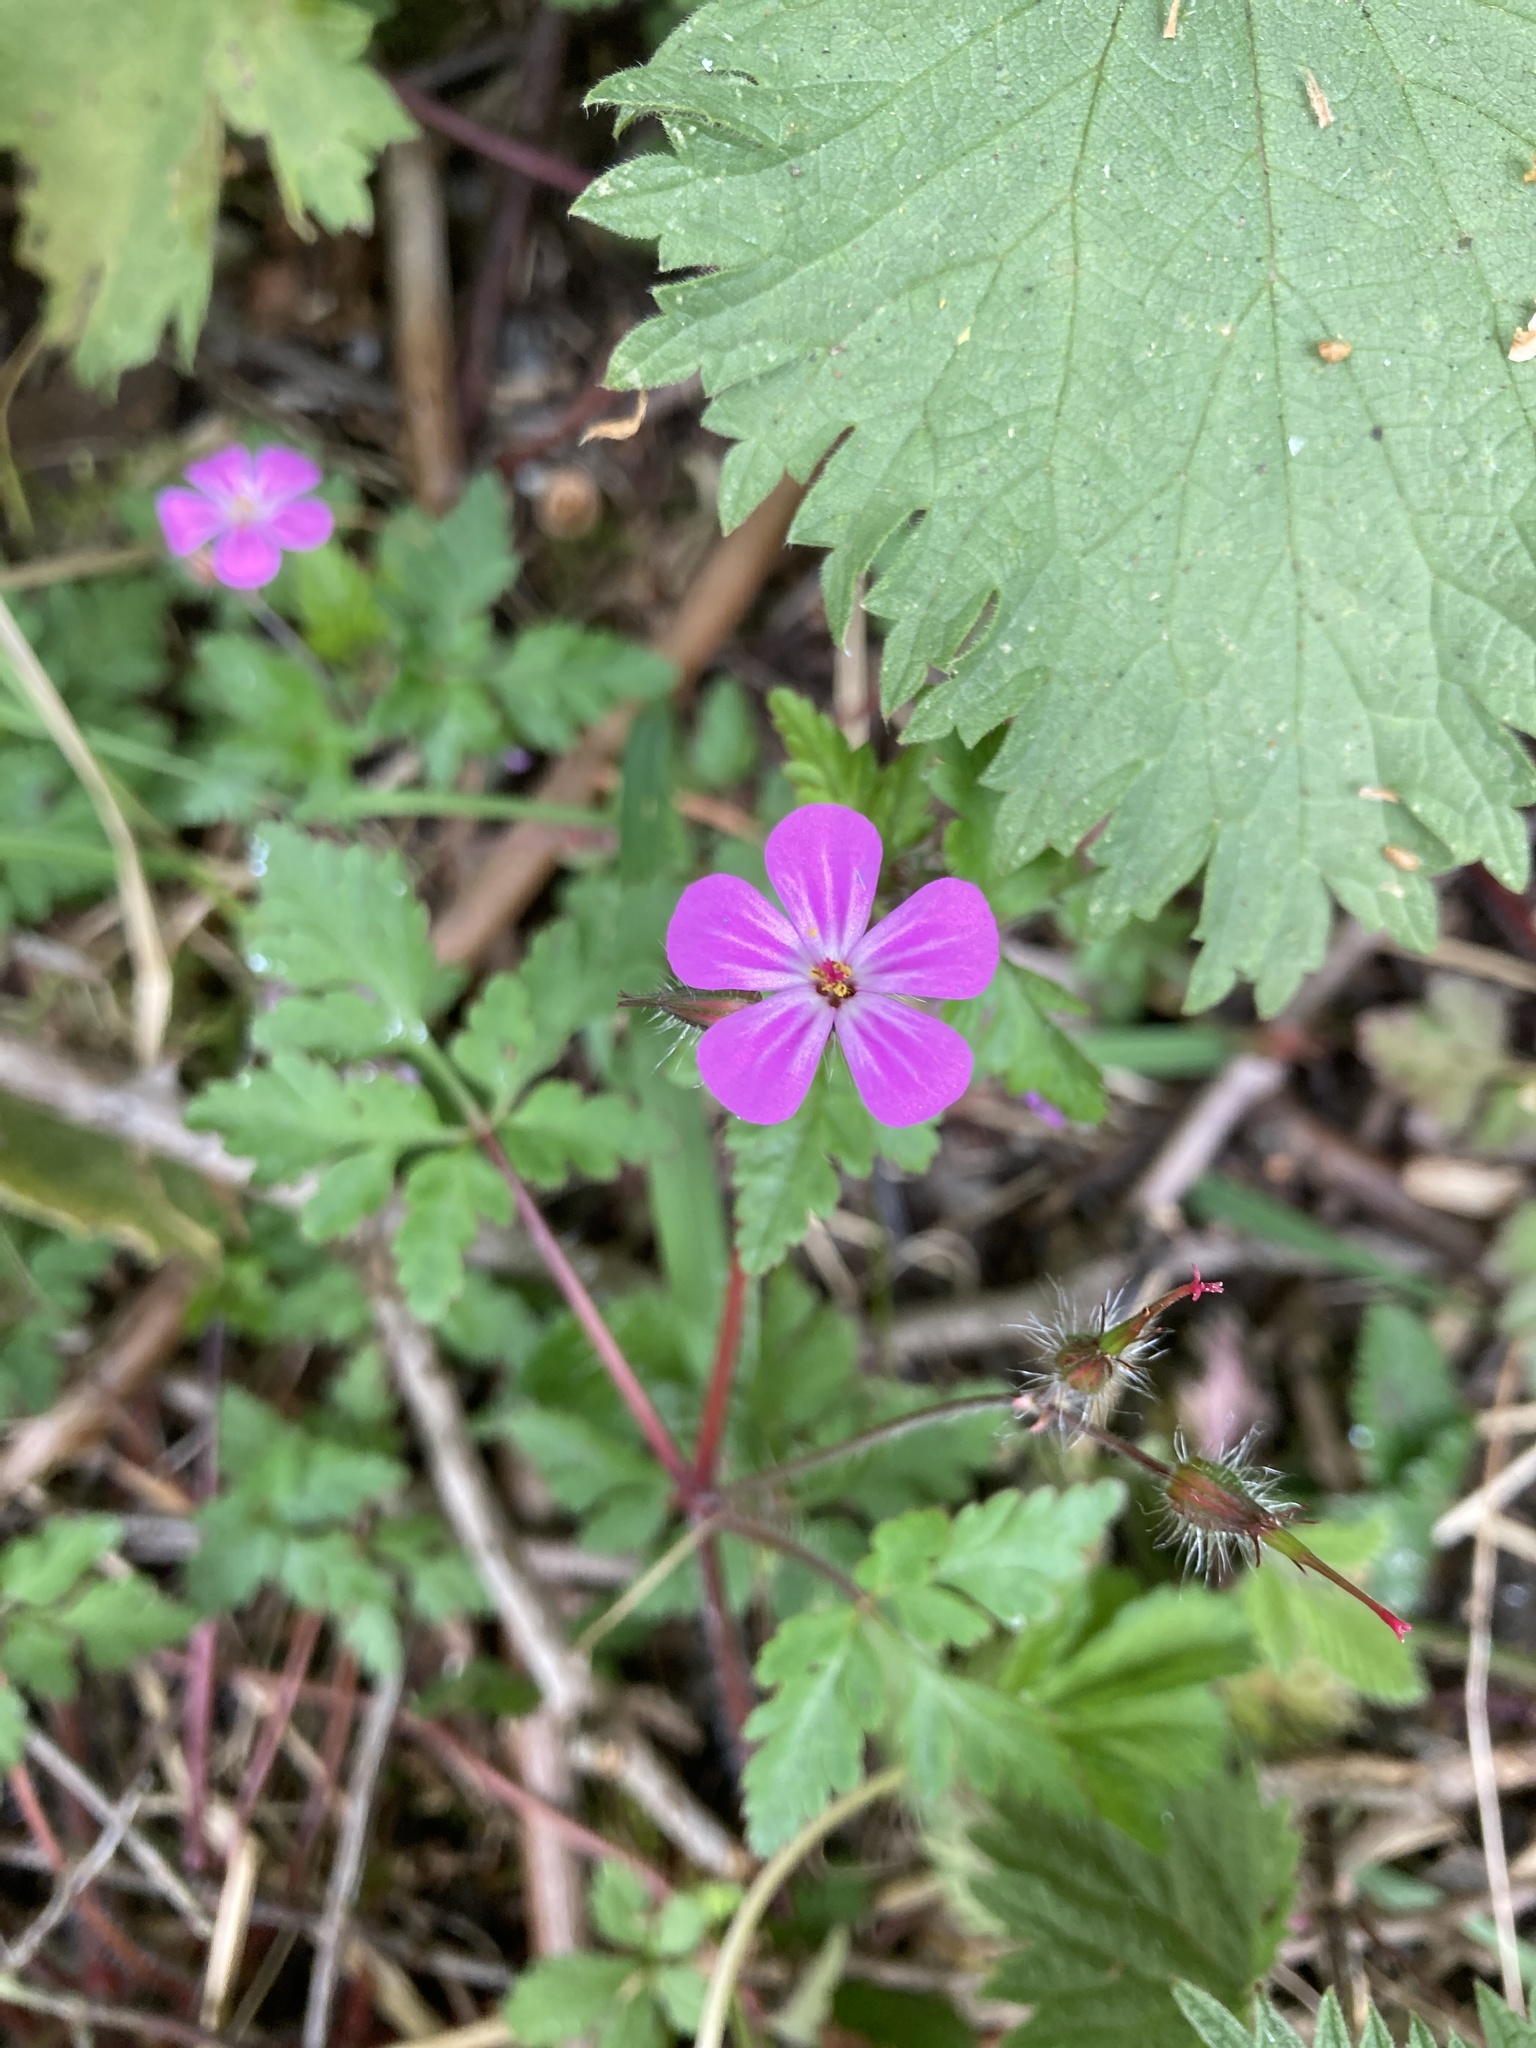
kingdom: Plantae
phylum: Tracheophyta
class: Magnoliopsida
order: Geraniales
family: Geraniaceae
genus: Geranium
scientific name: Geranium robertianum
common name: Herb-robert
